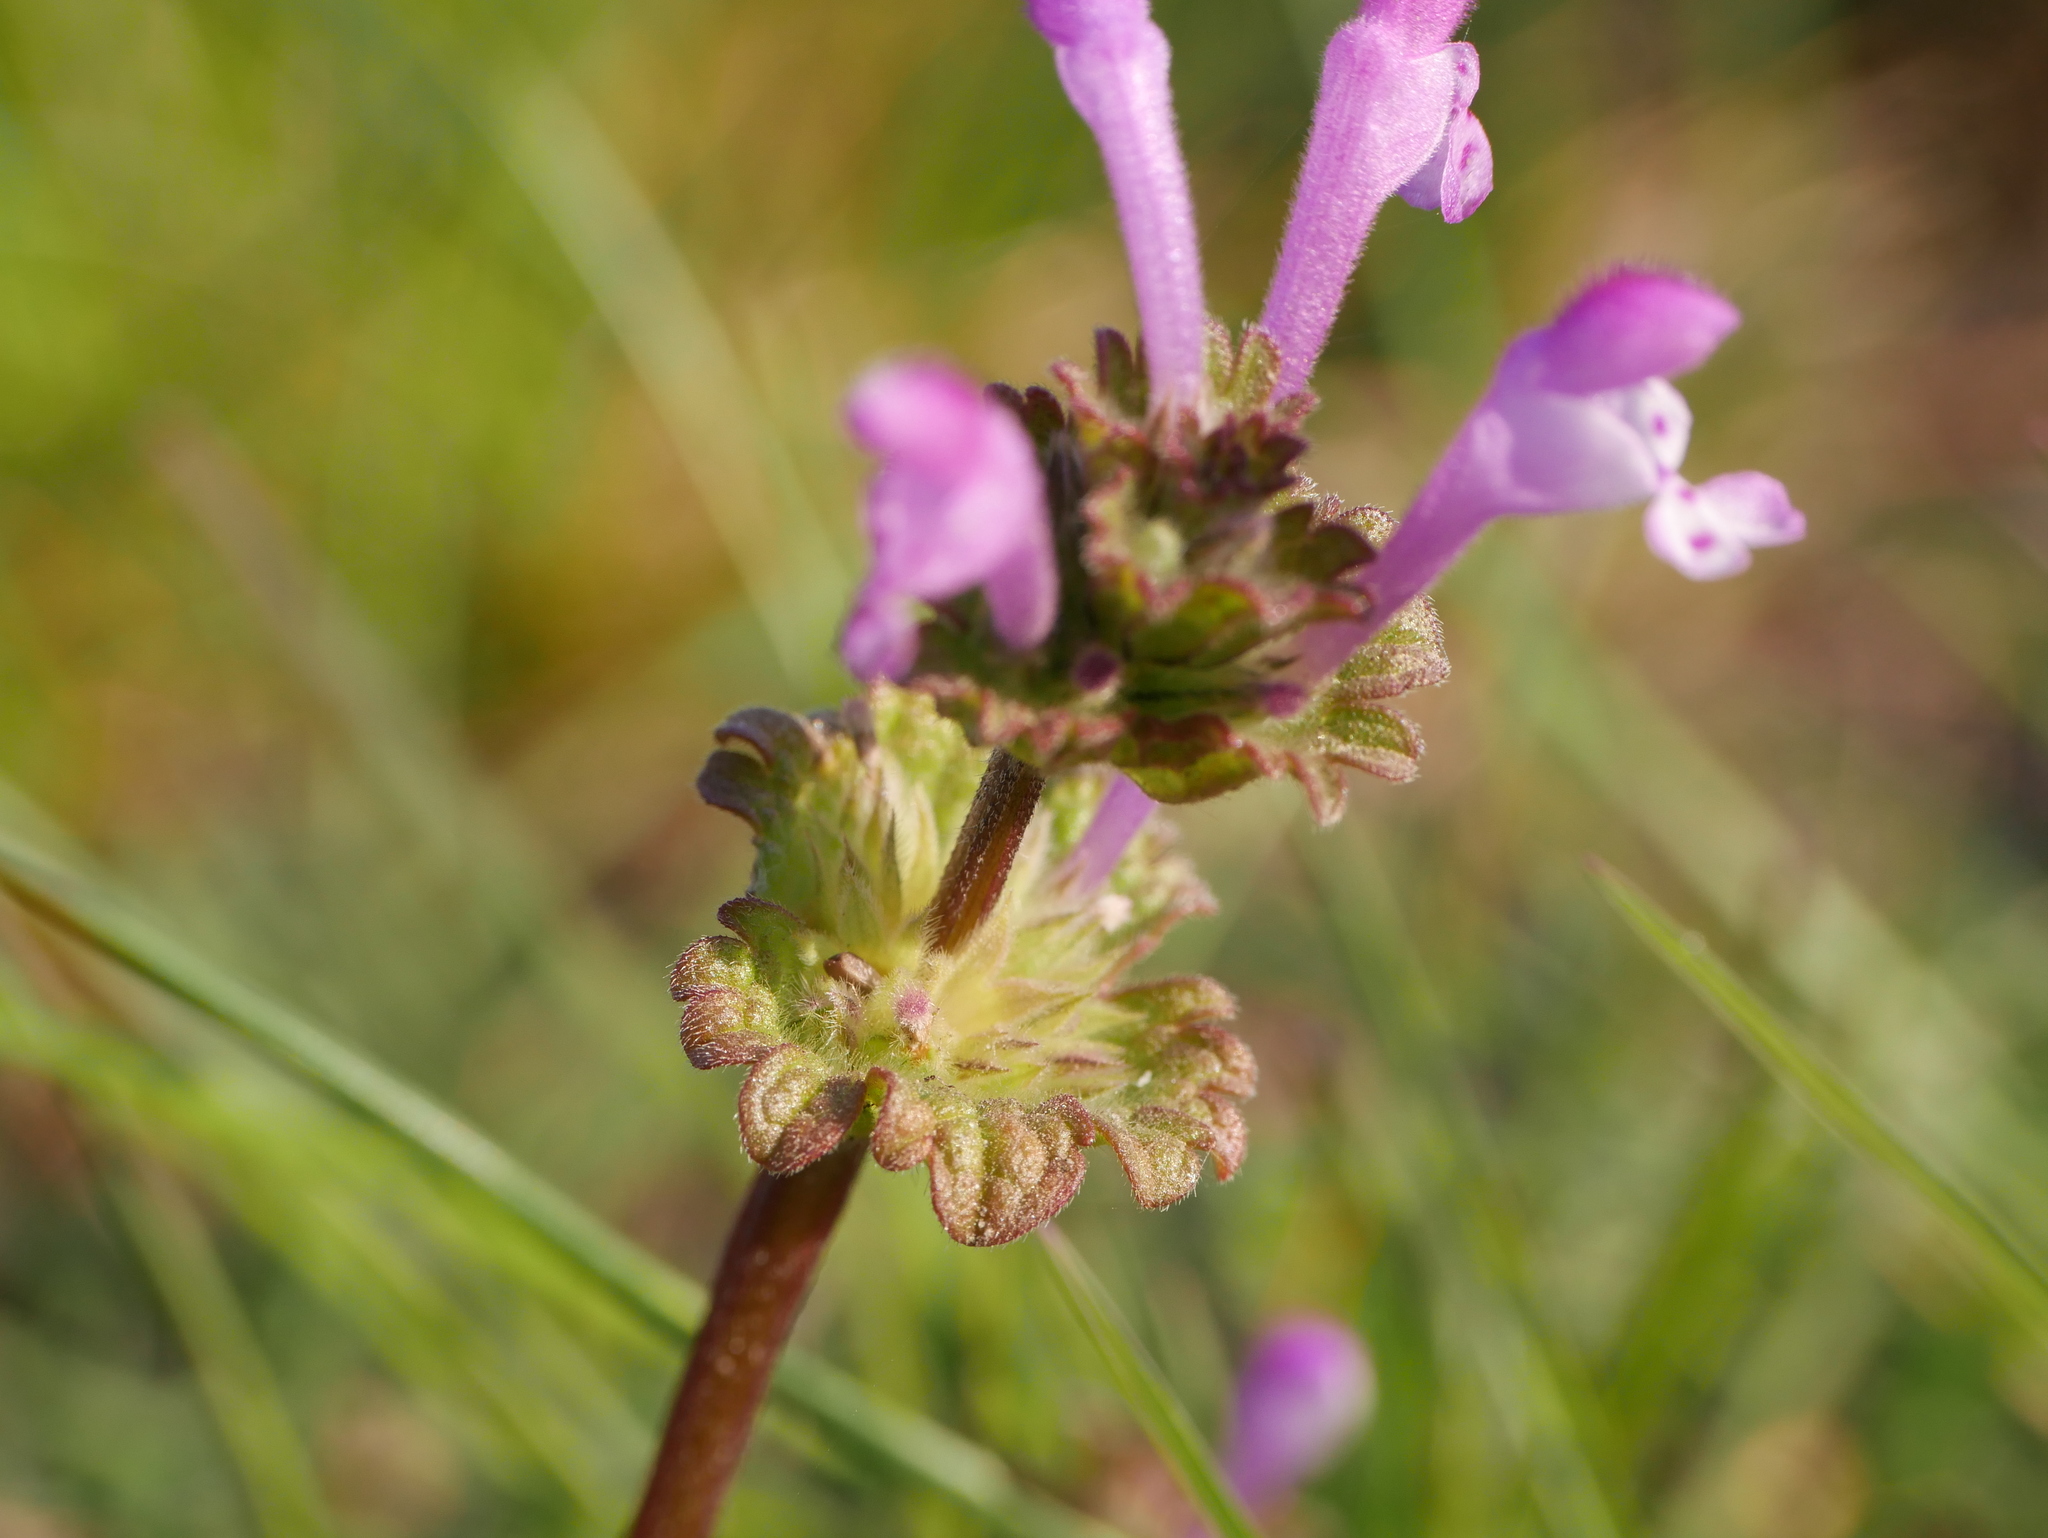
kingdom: Plantae
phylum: Tracheophyta
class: Magnoliopsida
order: Lamiales
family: Lamiaceae
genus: Lamium
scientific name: Lamium amplexicaule
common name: Henbit dead-nettle
